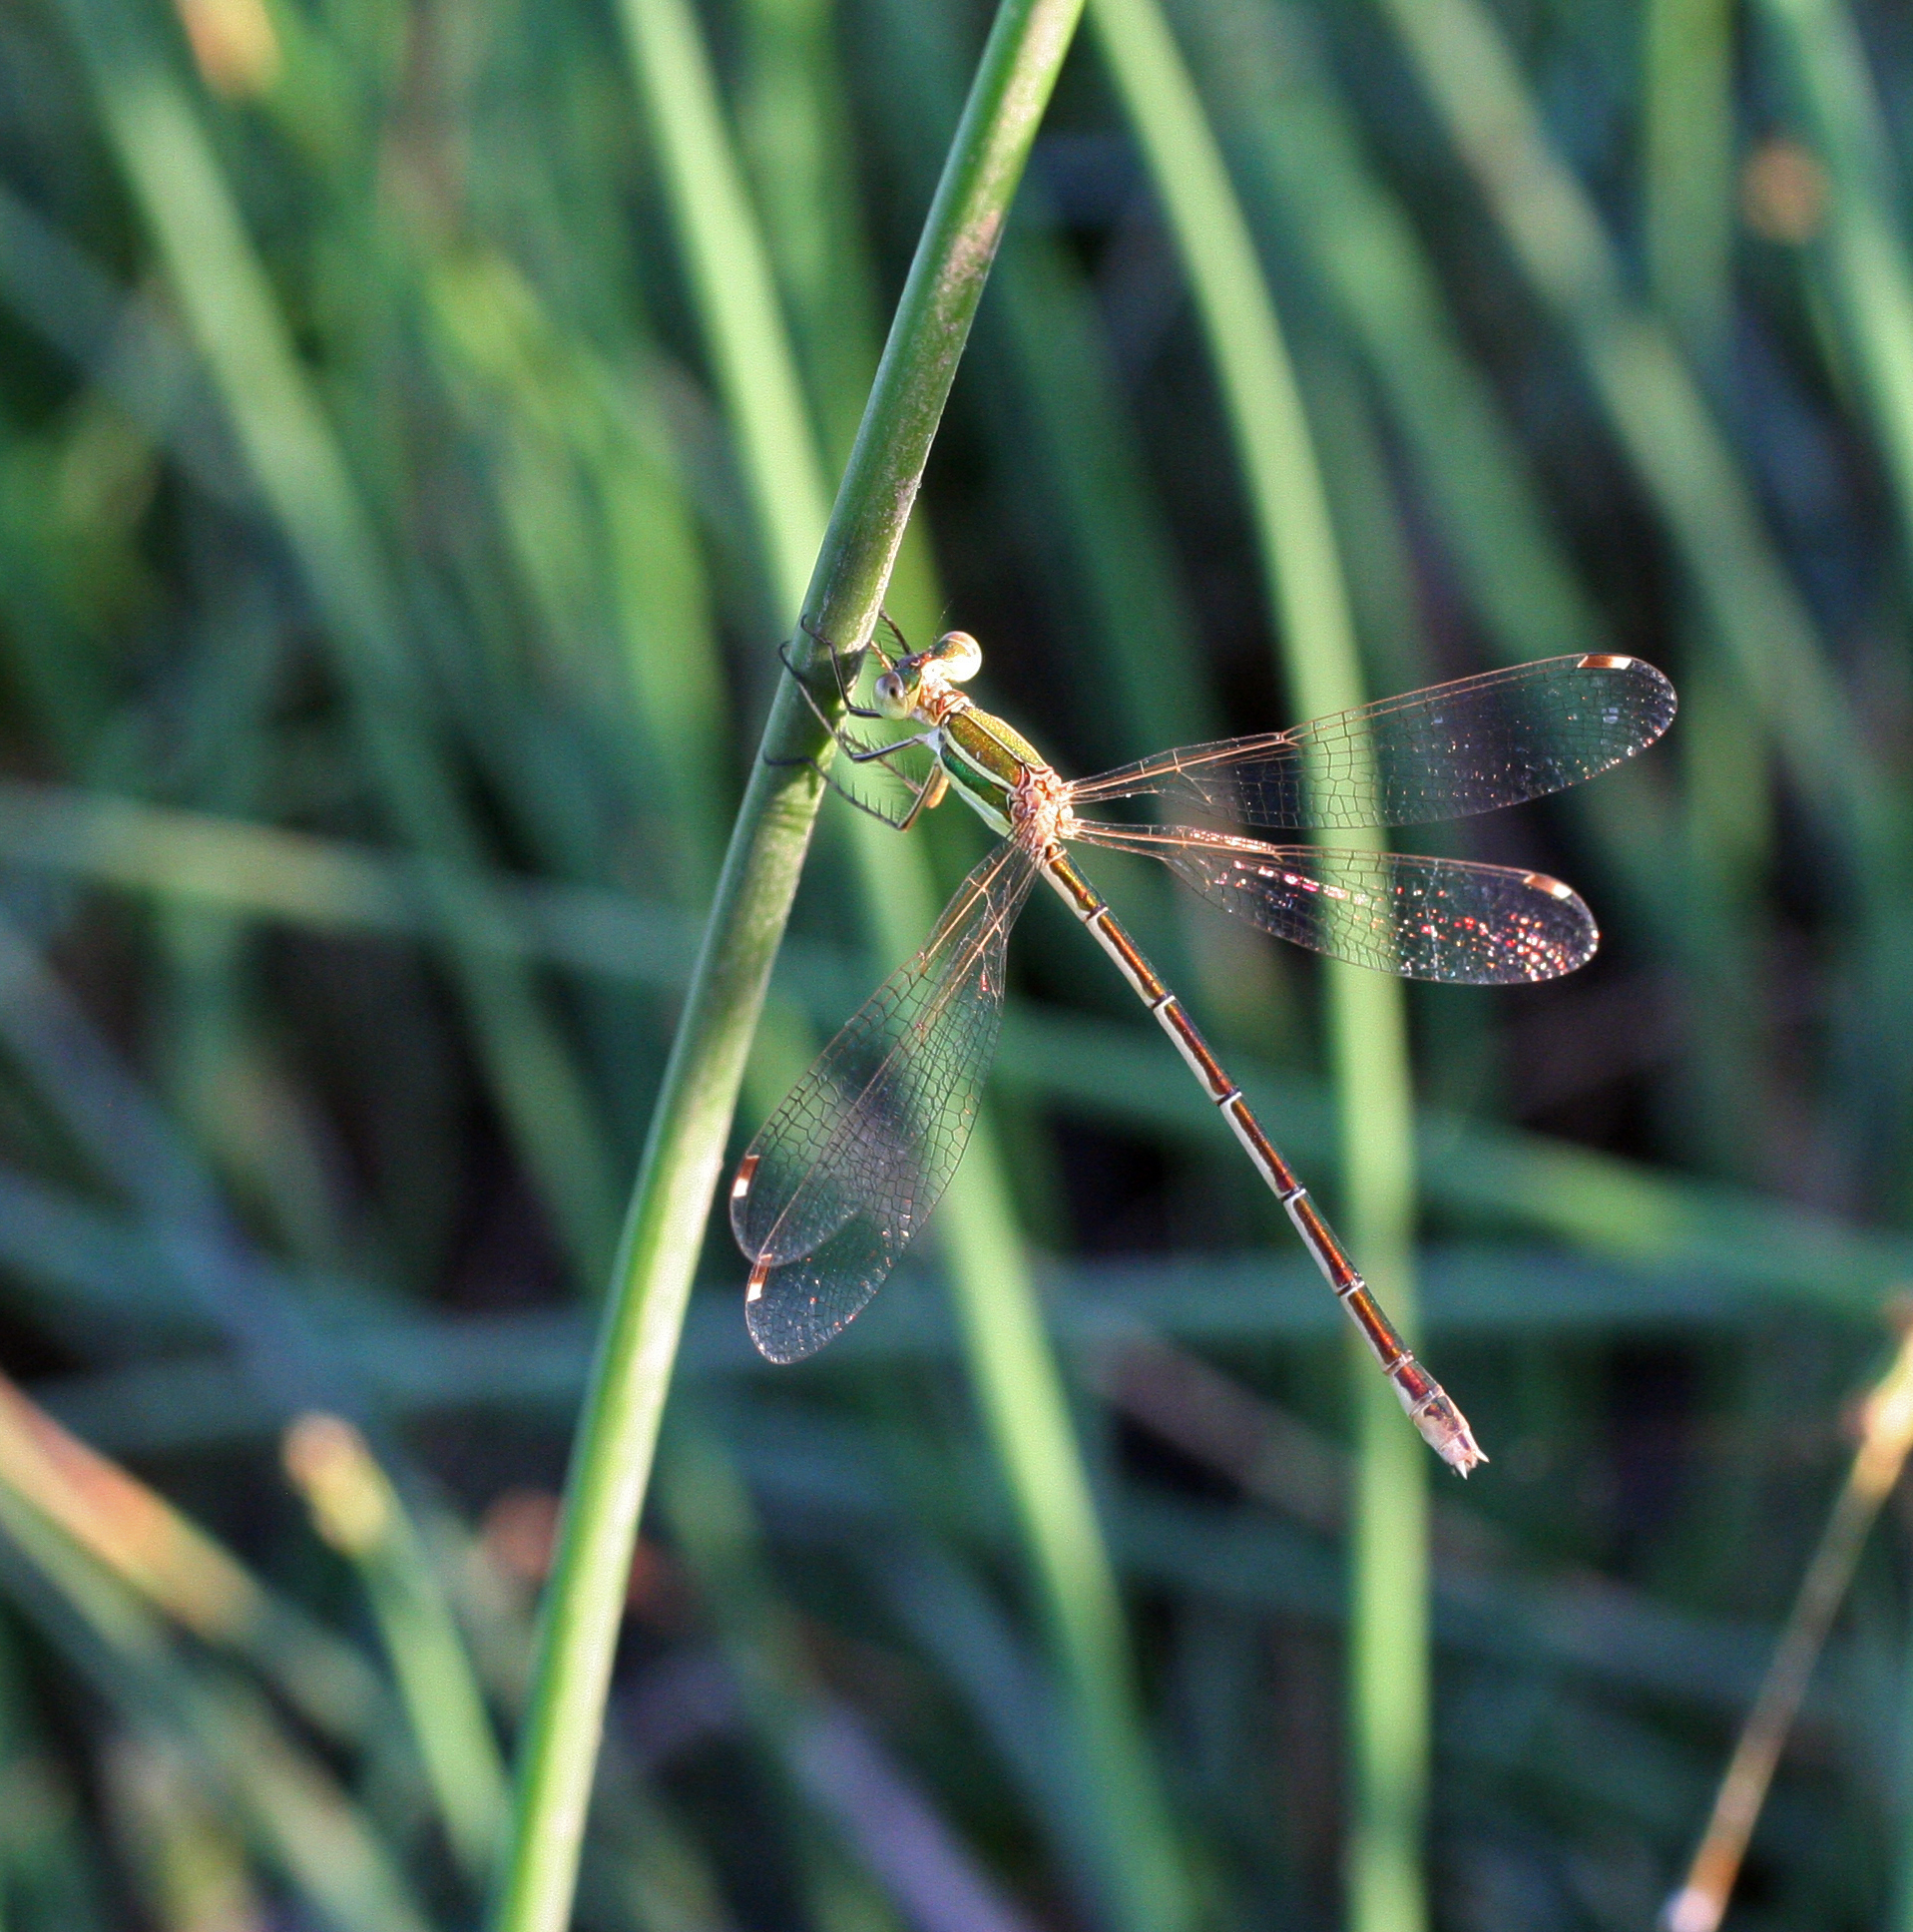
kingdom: Animalia
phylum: Arthropoda
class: Insecta
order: Odonata
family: Lestidae
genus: Lestes
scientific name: Lestes barbarus
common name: Migrant spreadwing
